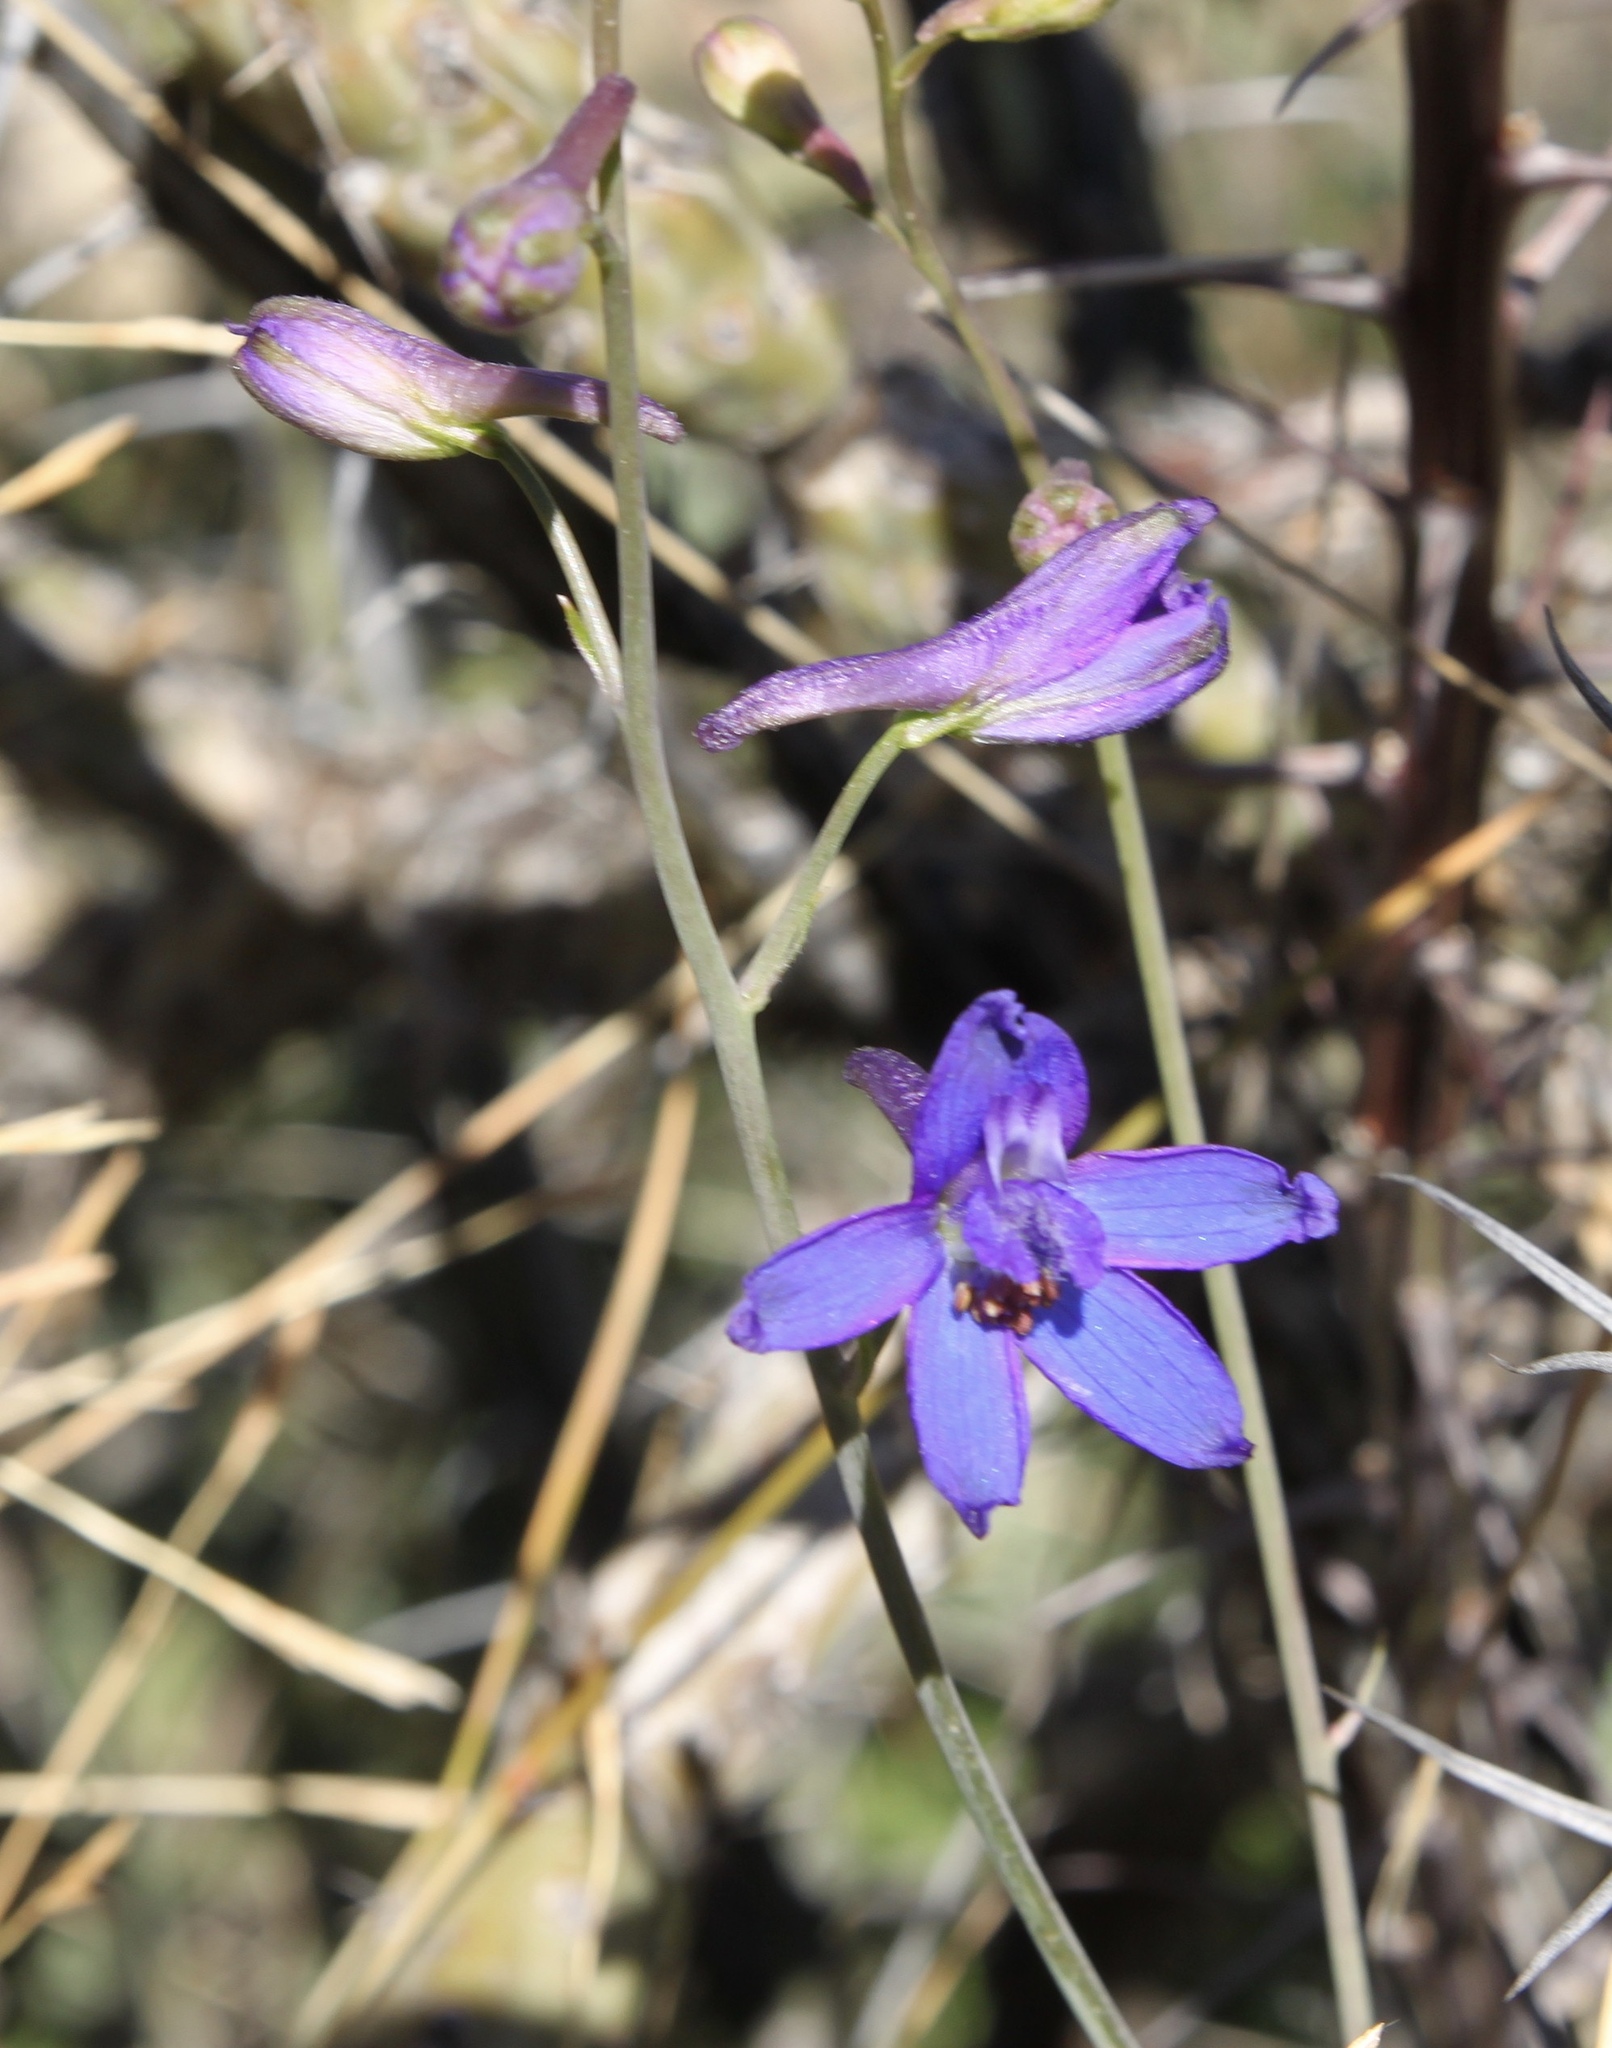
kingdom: Plantae
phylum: Tracheophyta
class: Magnoliopsida
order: Ranunculales
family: Ranunculaceae
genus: Delphinium
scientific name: Delphinium scaposum
